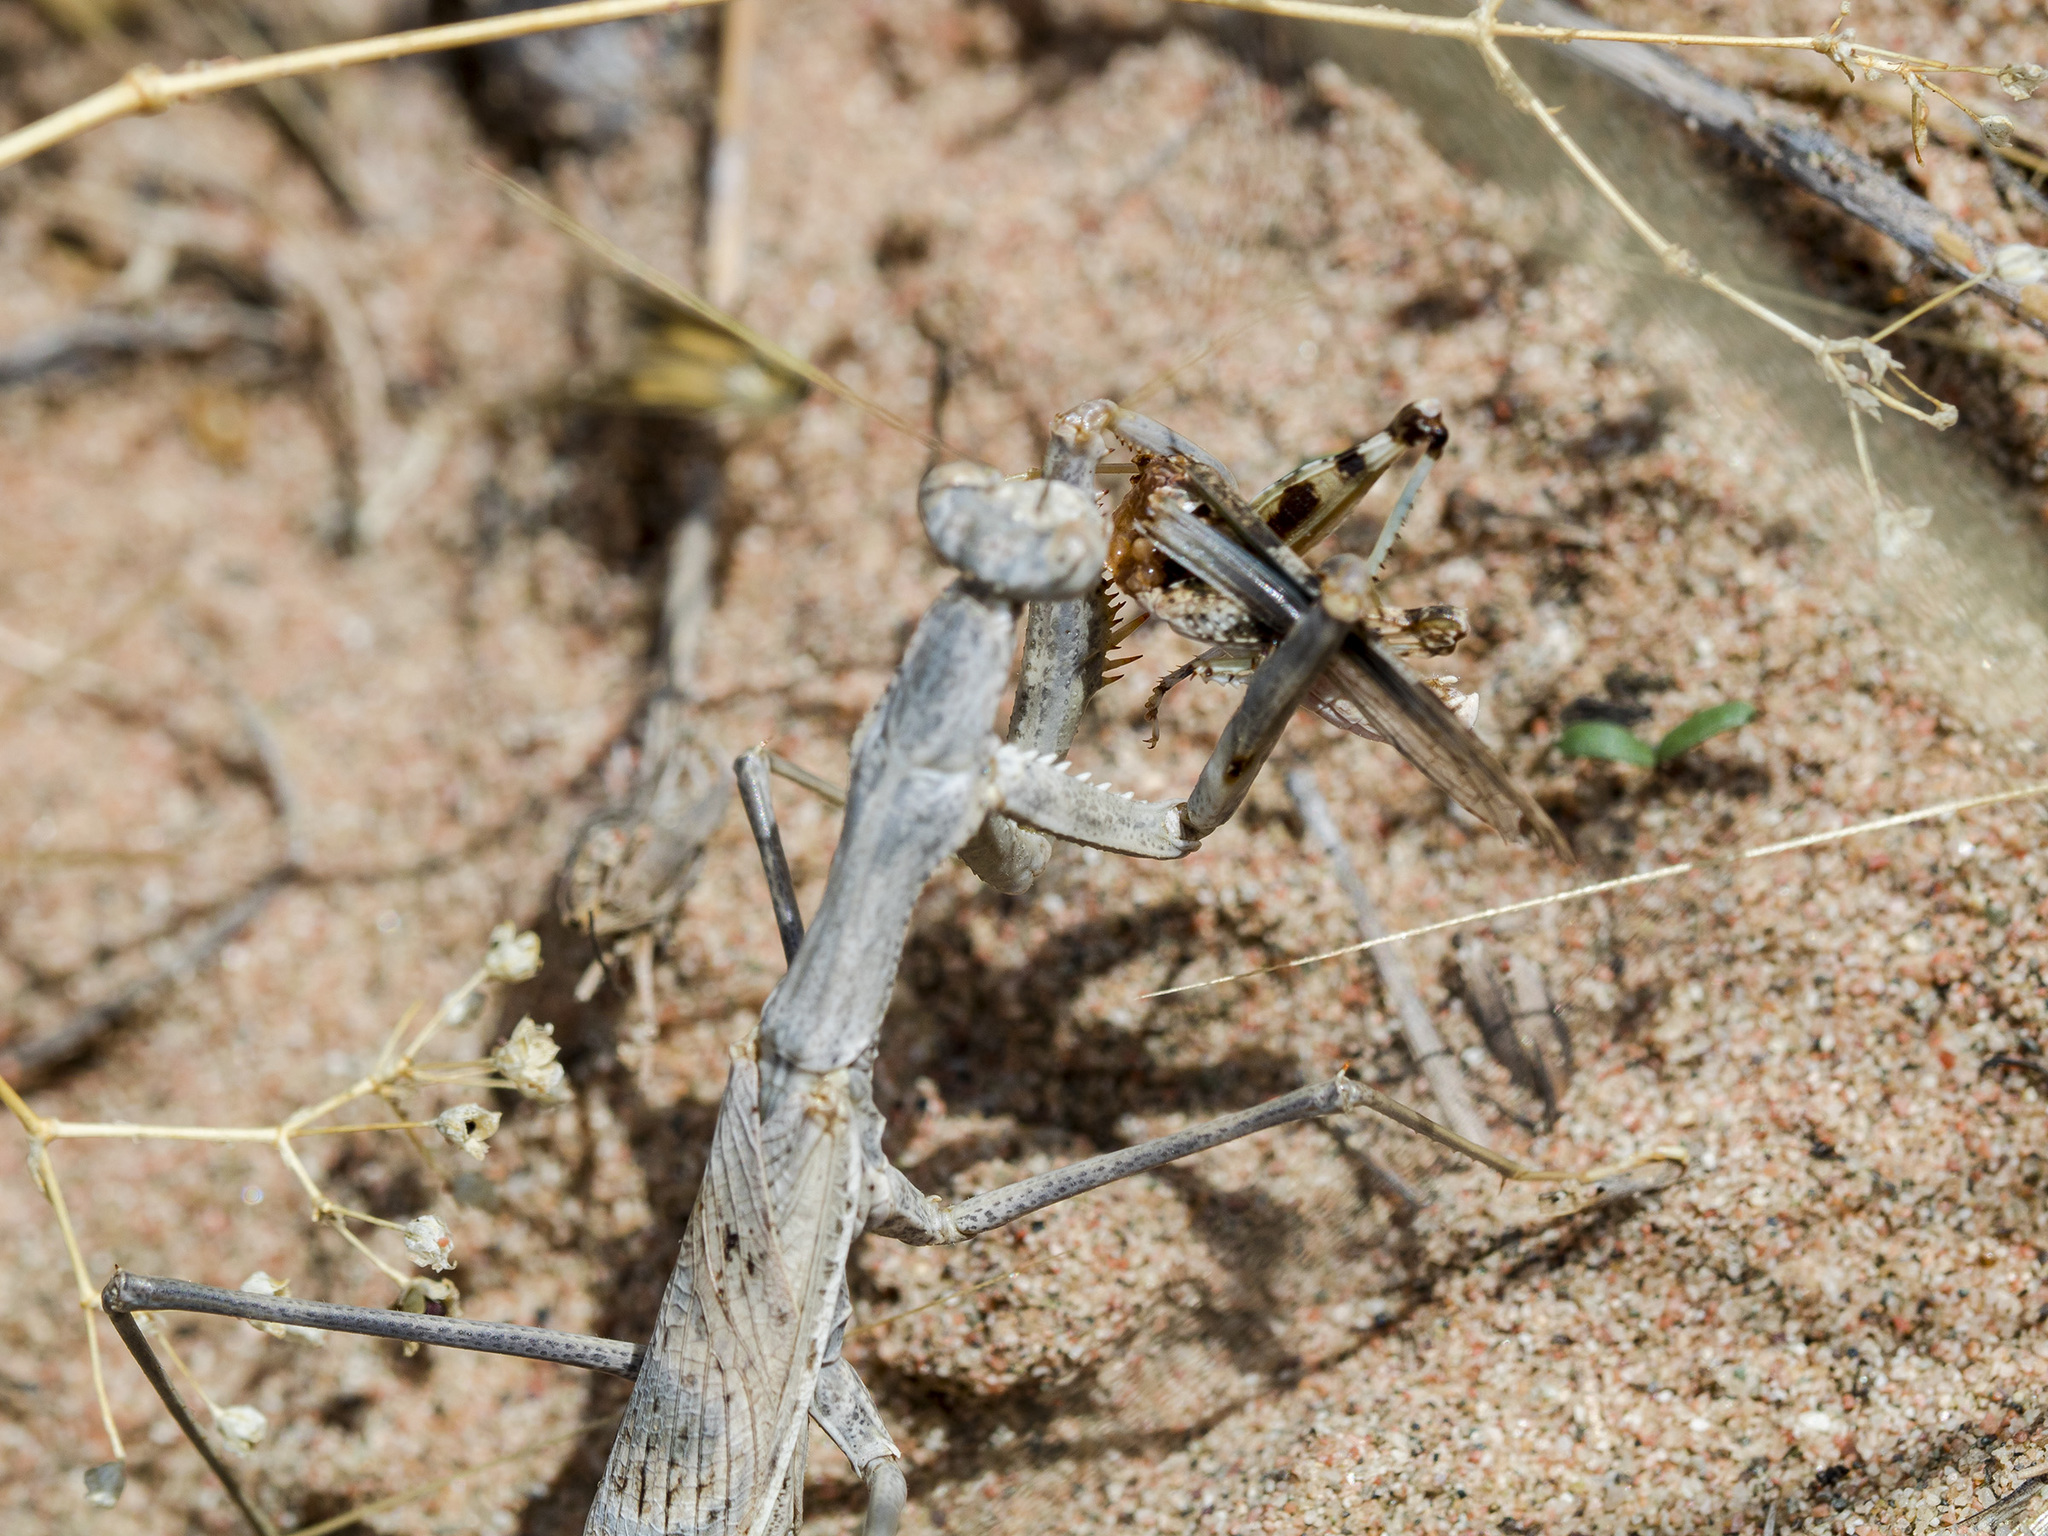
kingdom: Animalia
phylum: Arthropoda
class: Insecta
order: Mantodea
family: Rivetinidae
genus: Rivetina
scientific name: Rivetina nana
